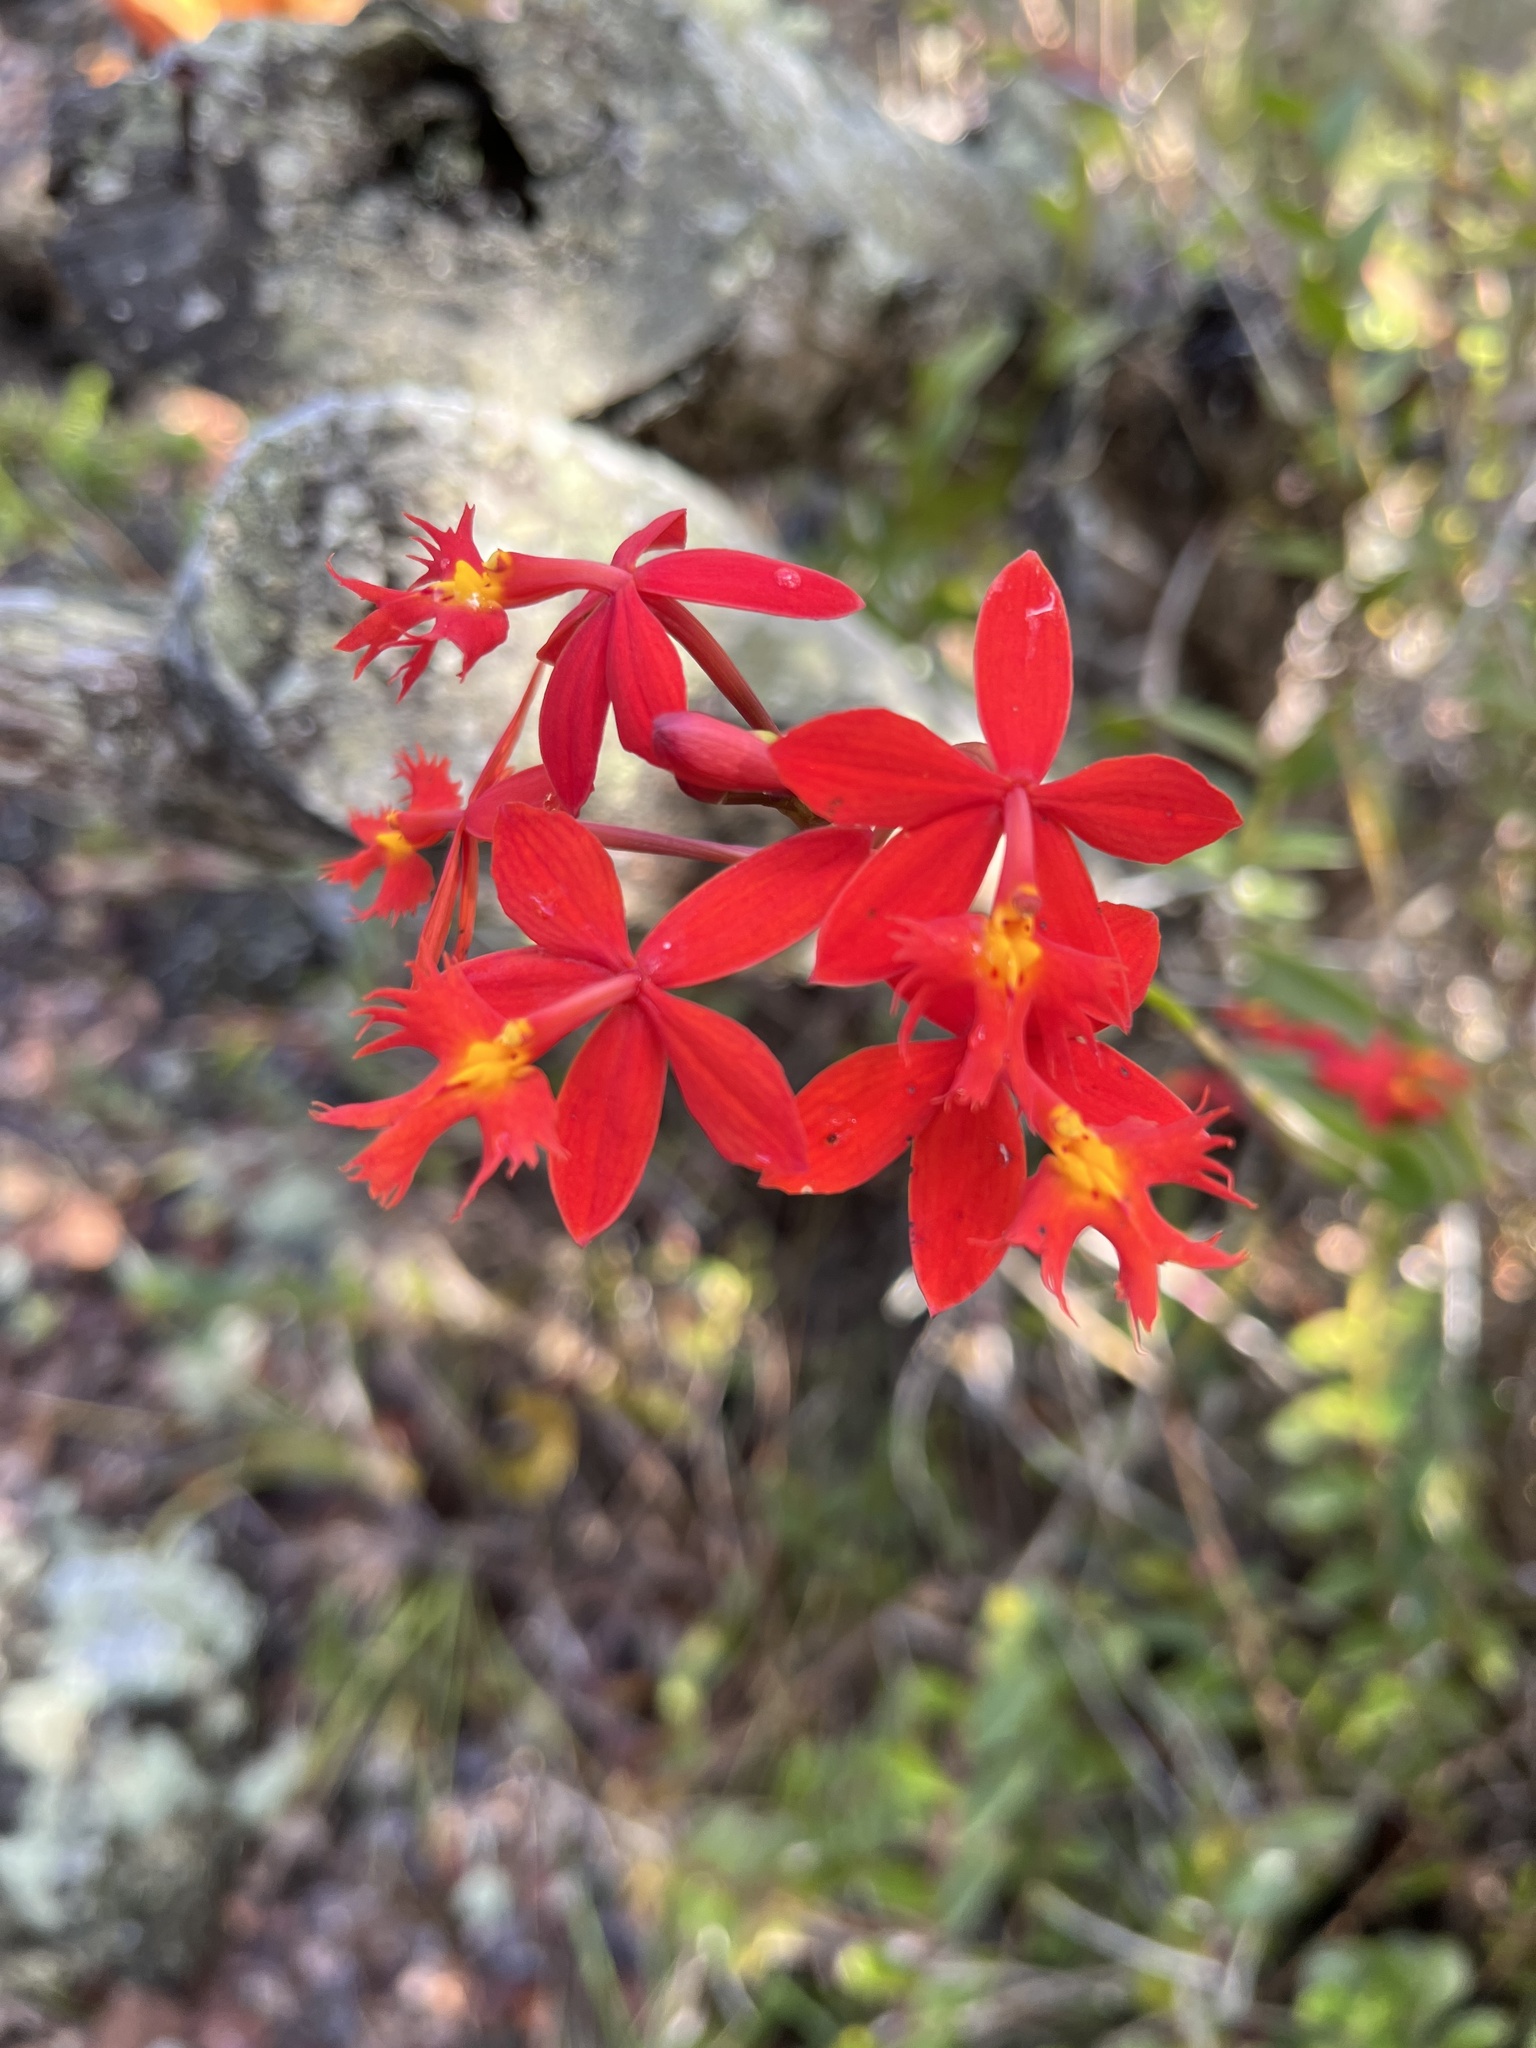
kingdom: Plantae
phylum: Tracheophyta
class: Liliopsida
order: Asparagales
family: Orchidaceae
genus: Epidendrum
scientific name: Epidendrum radicans
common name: Fire star orchid
